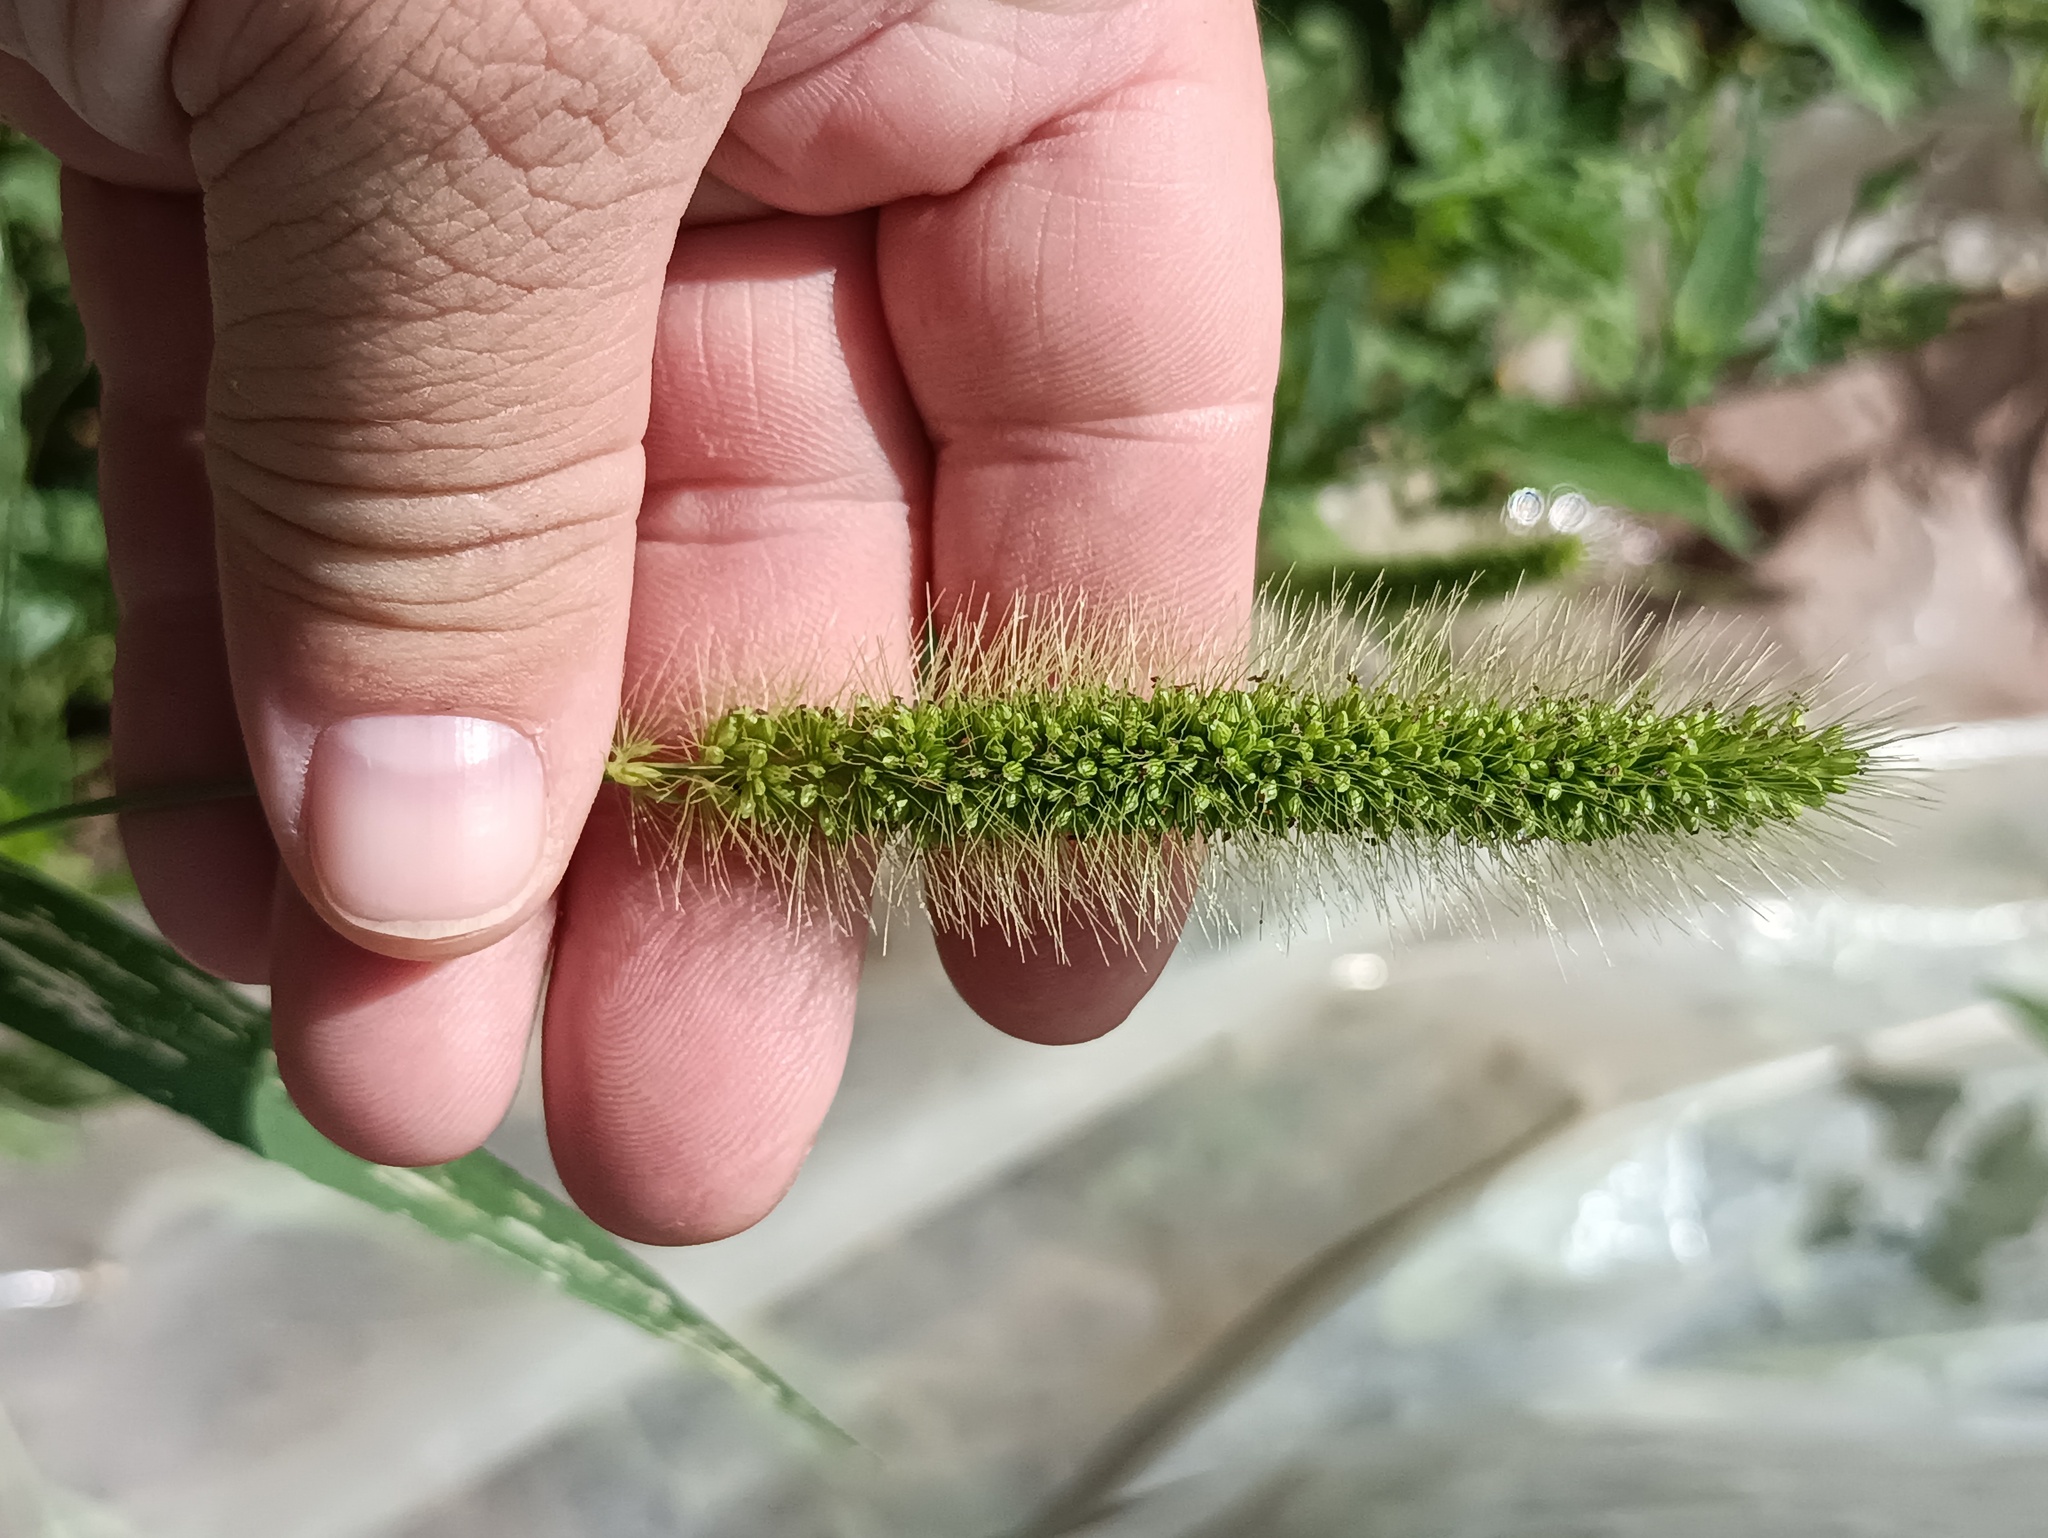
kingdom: Plantae
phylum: Tracheophyta
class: Liliopsida
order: Poales
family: Poaceae
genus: Setaria
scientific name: Setaria viridis
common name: Green bristlegrass
